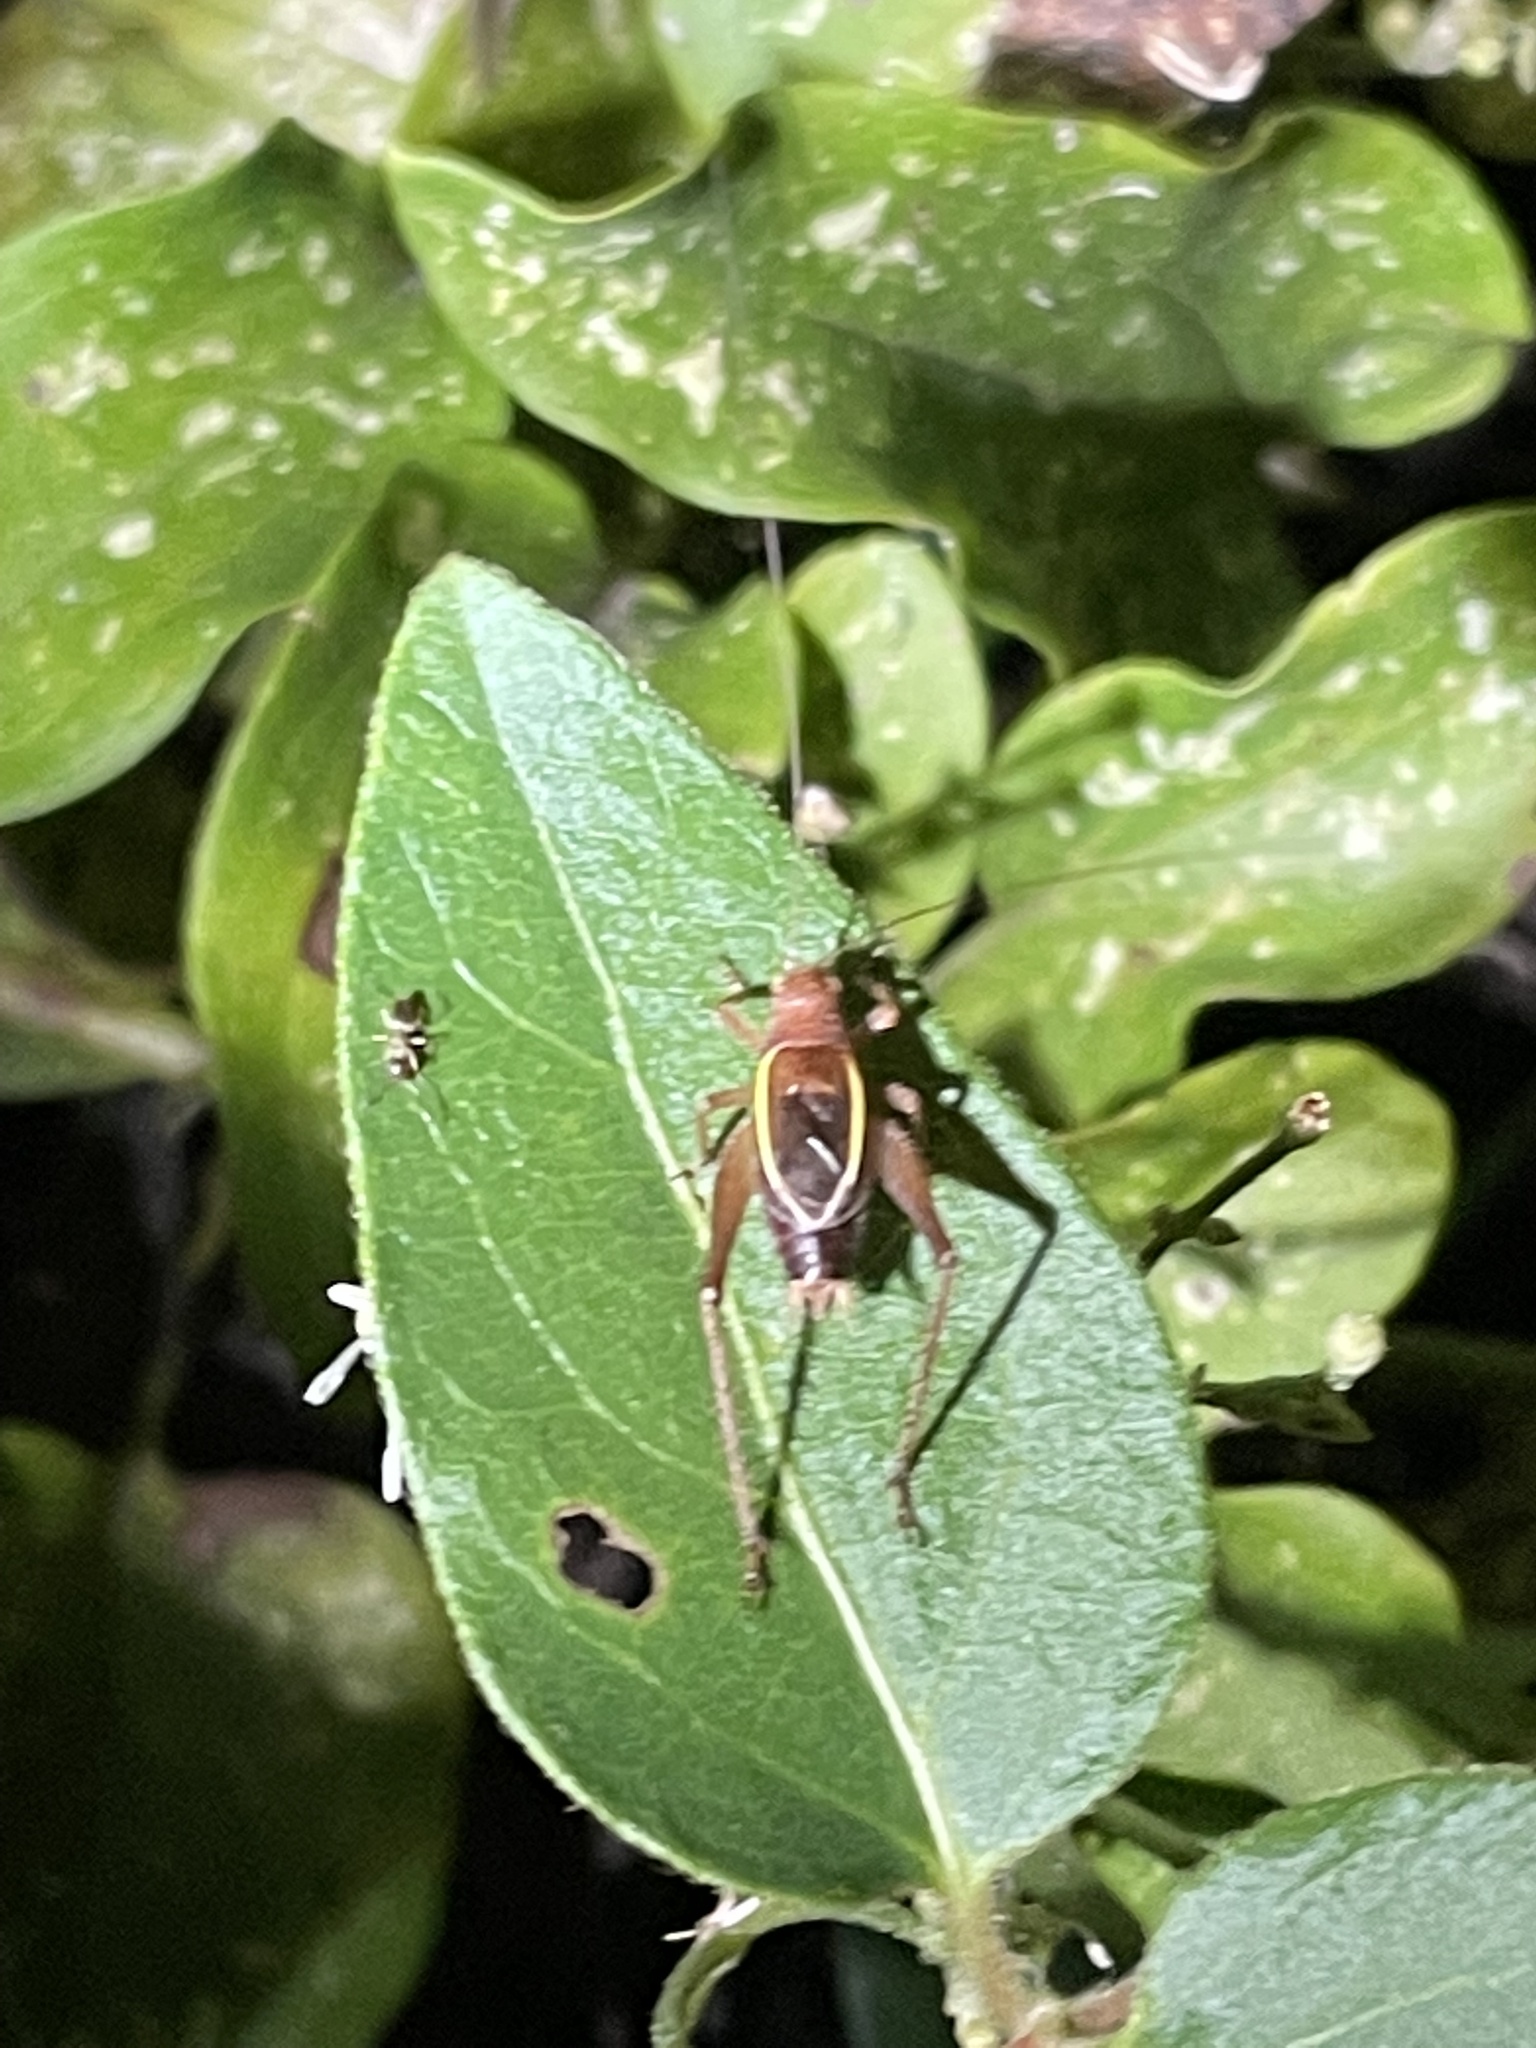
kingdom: Animalia
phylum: Arthropoda
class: Insecta
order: Orthoptera
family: Gryllidae
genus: Hapithus
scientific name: Hapithus agitator
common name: Restless bush cricket
